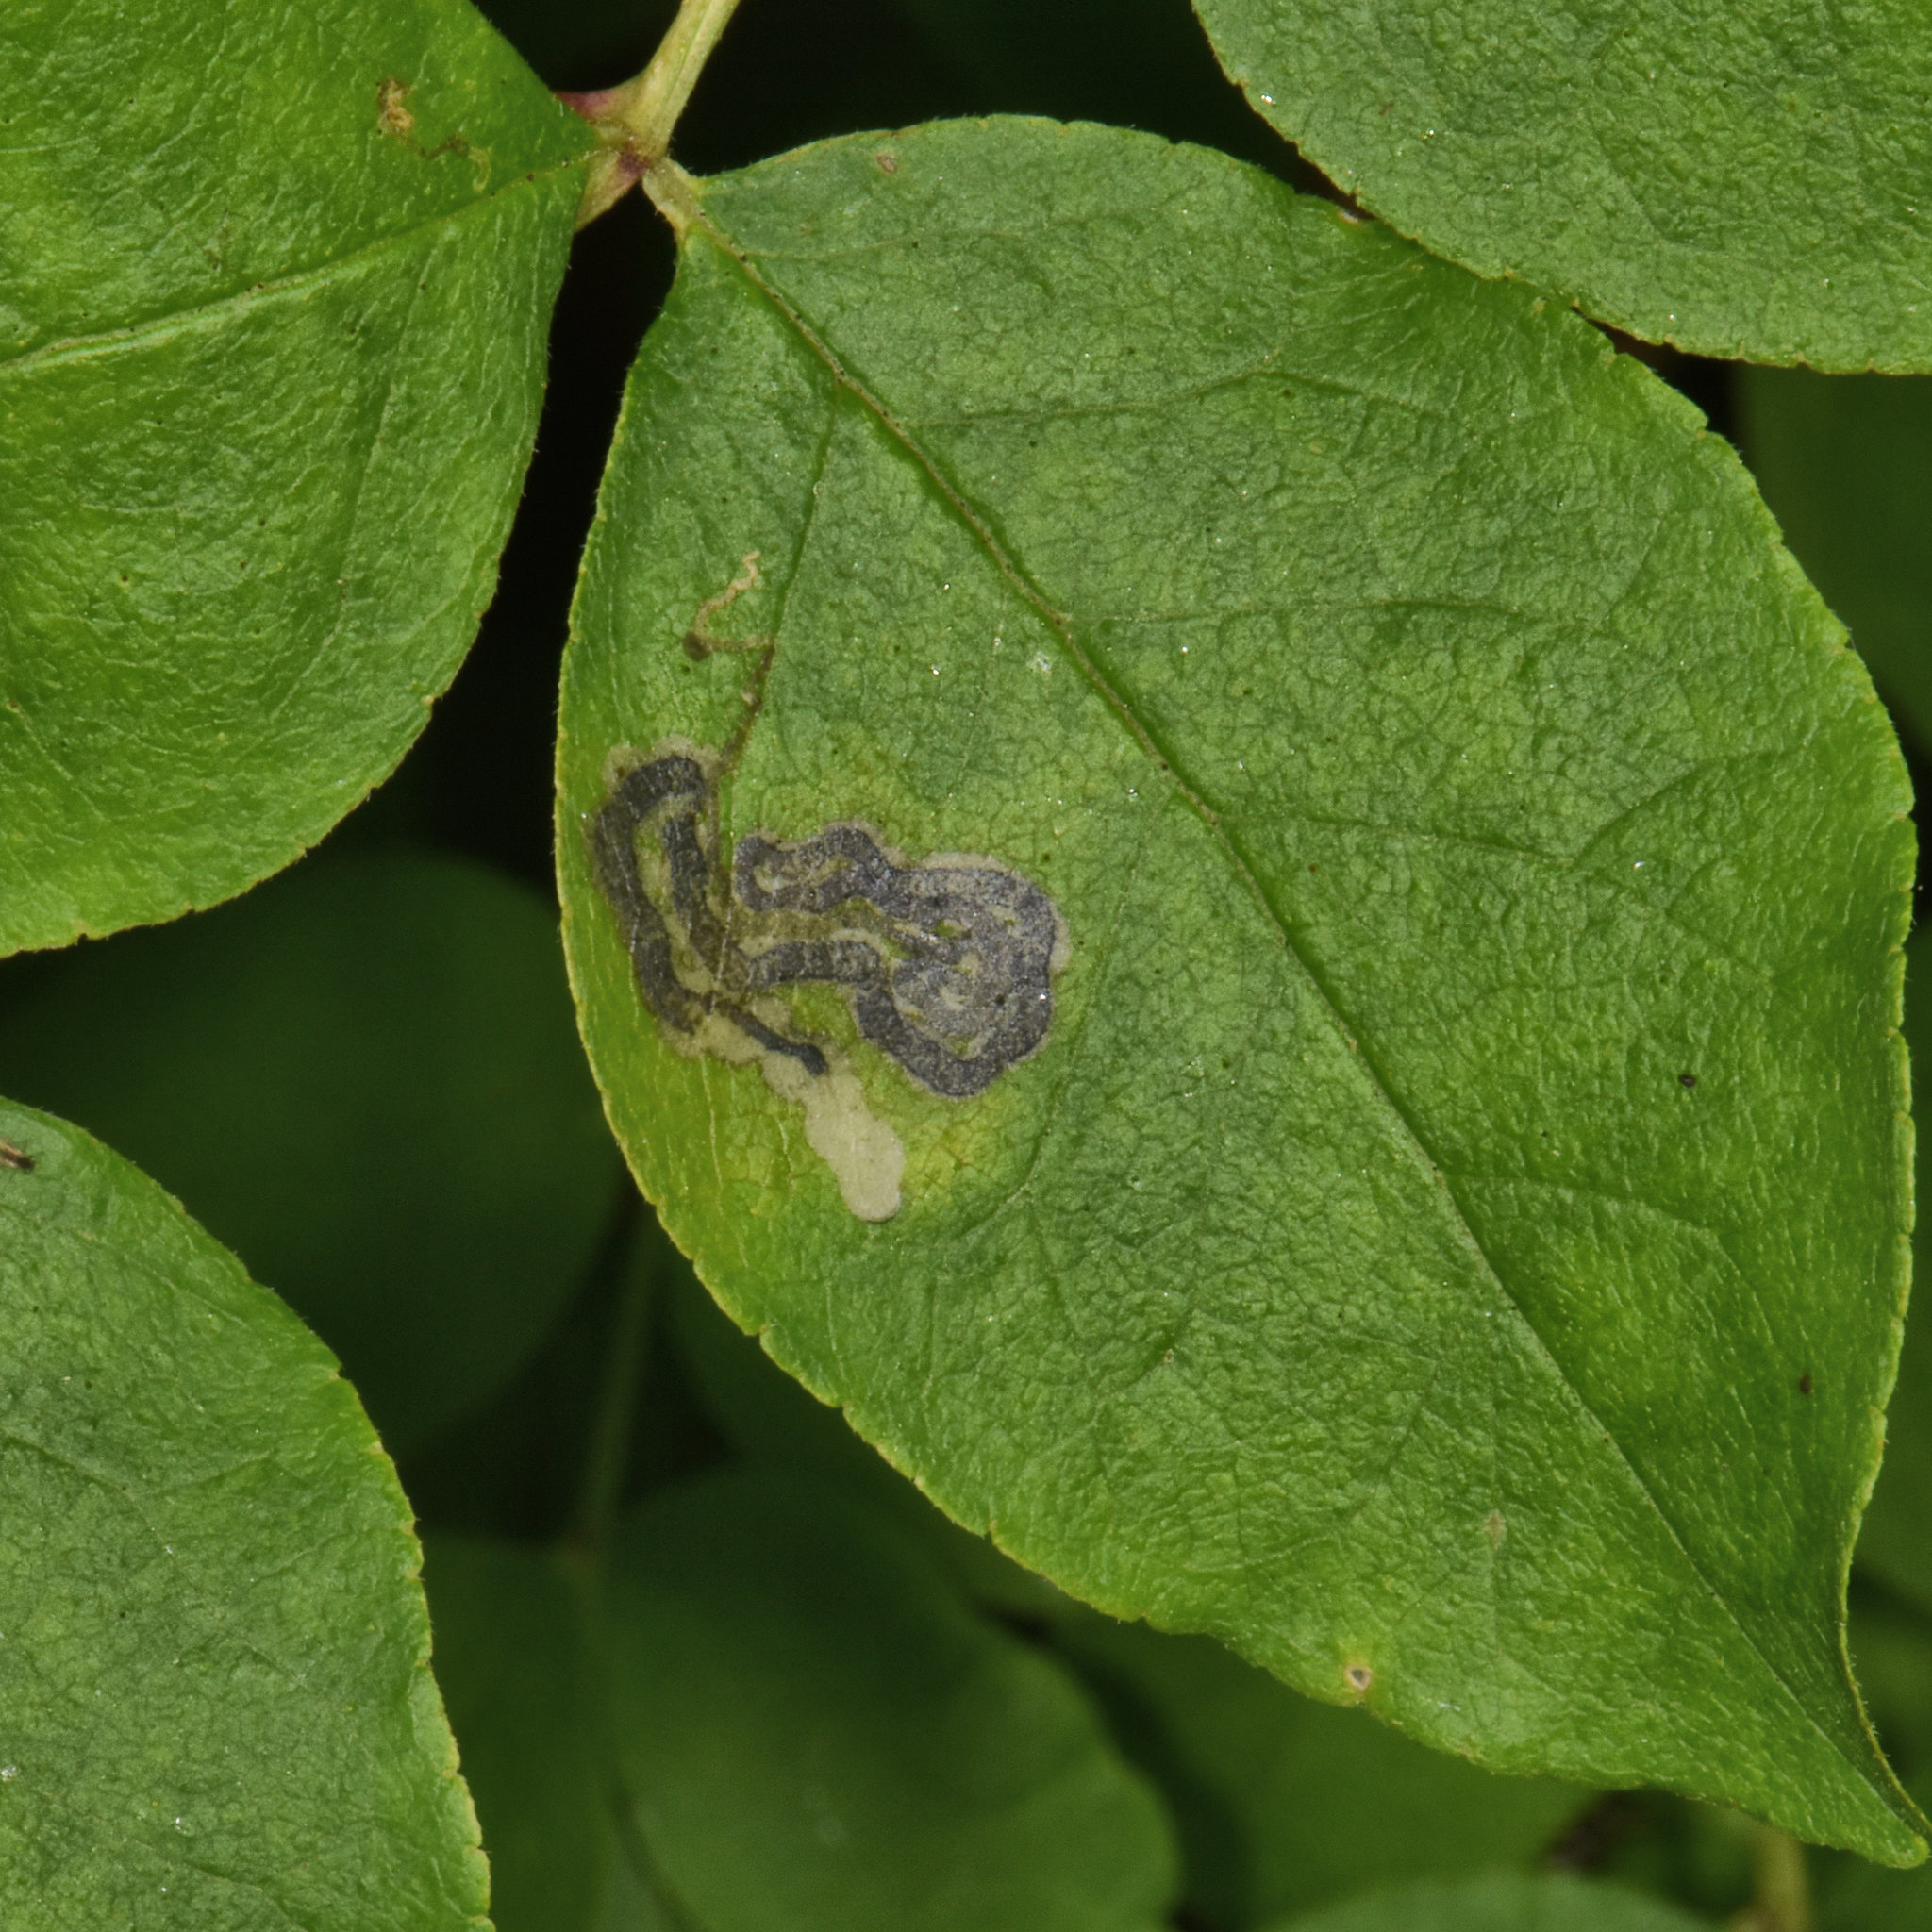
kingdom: Animalia
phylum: Arthropoda
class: Insecta
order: Lepidoptera
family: Nepticulidae
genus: Fomoria
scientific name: Fomoria pteliaeella
